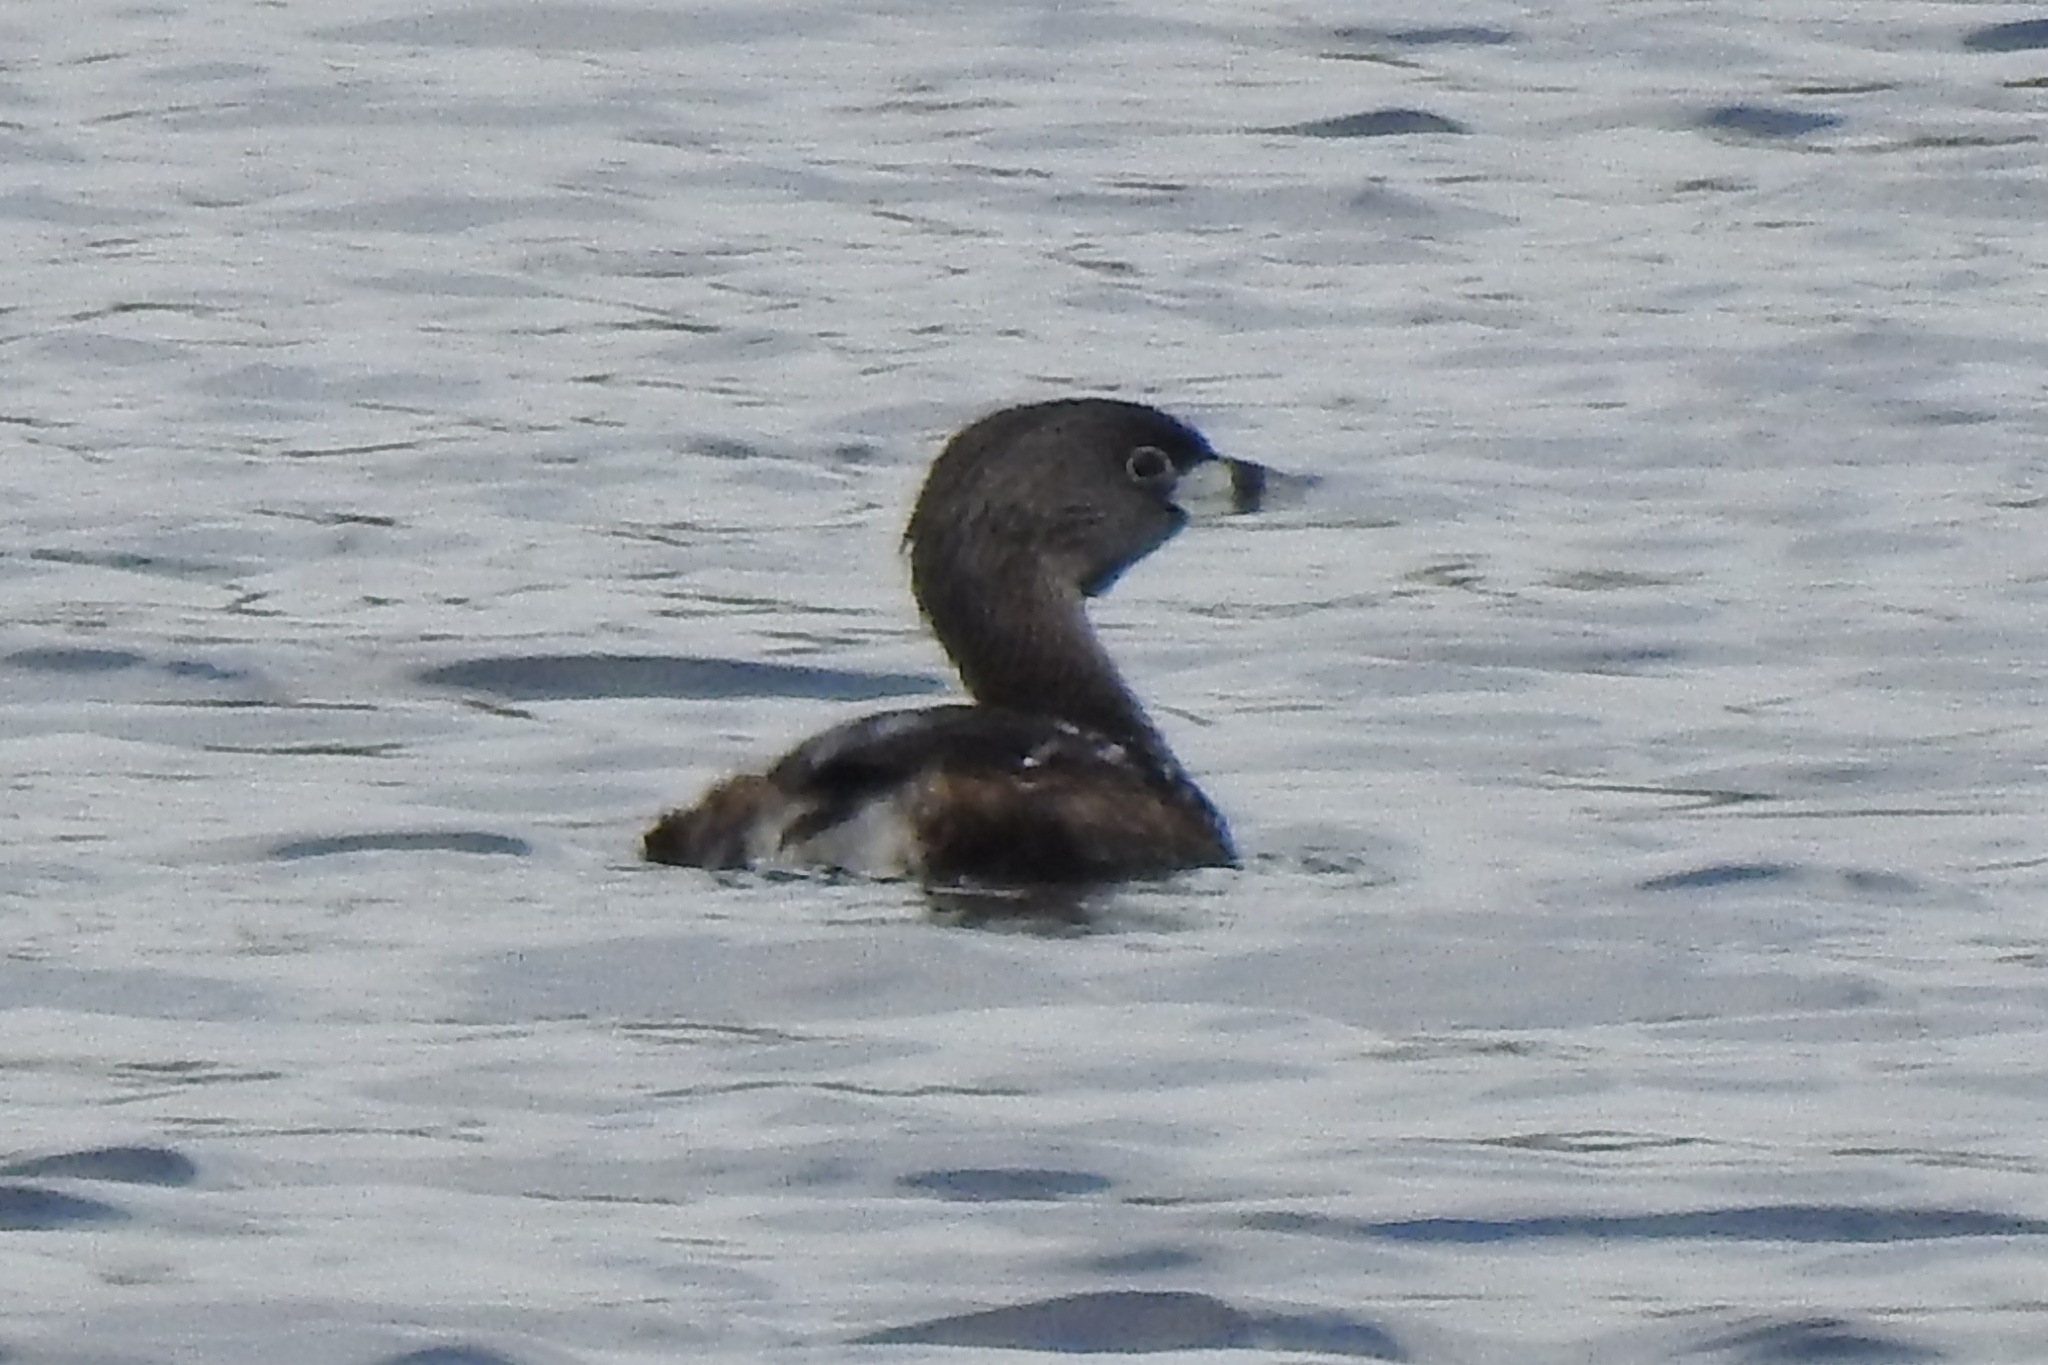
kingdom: Animalia
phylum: Chordata
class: Aves
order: Podicipediformes
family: Podicipedidae
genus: Podilymbus
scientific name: Podilymbus podiceps
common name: Pied-billed grebe
